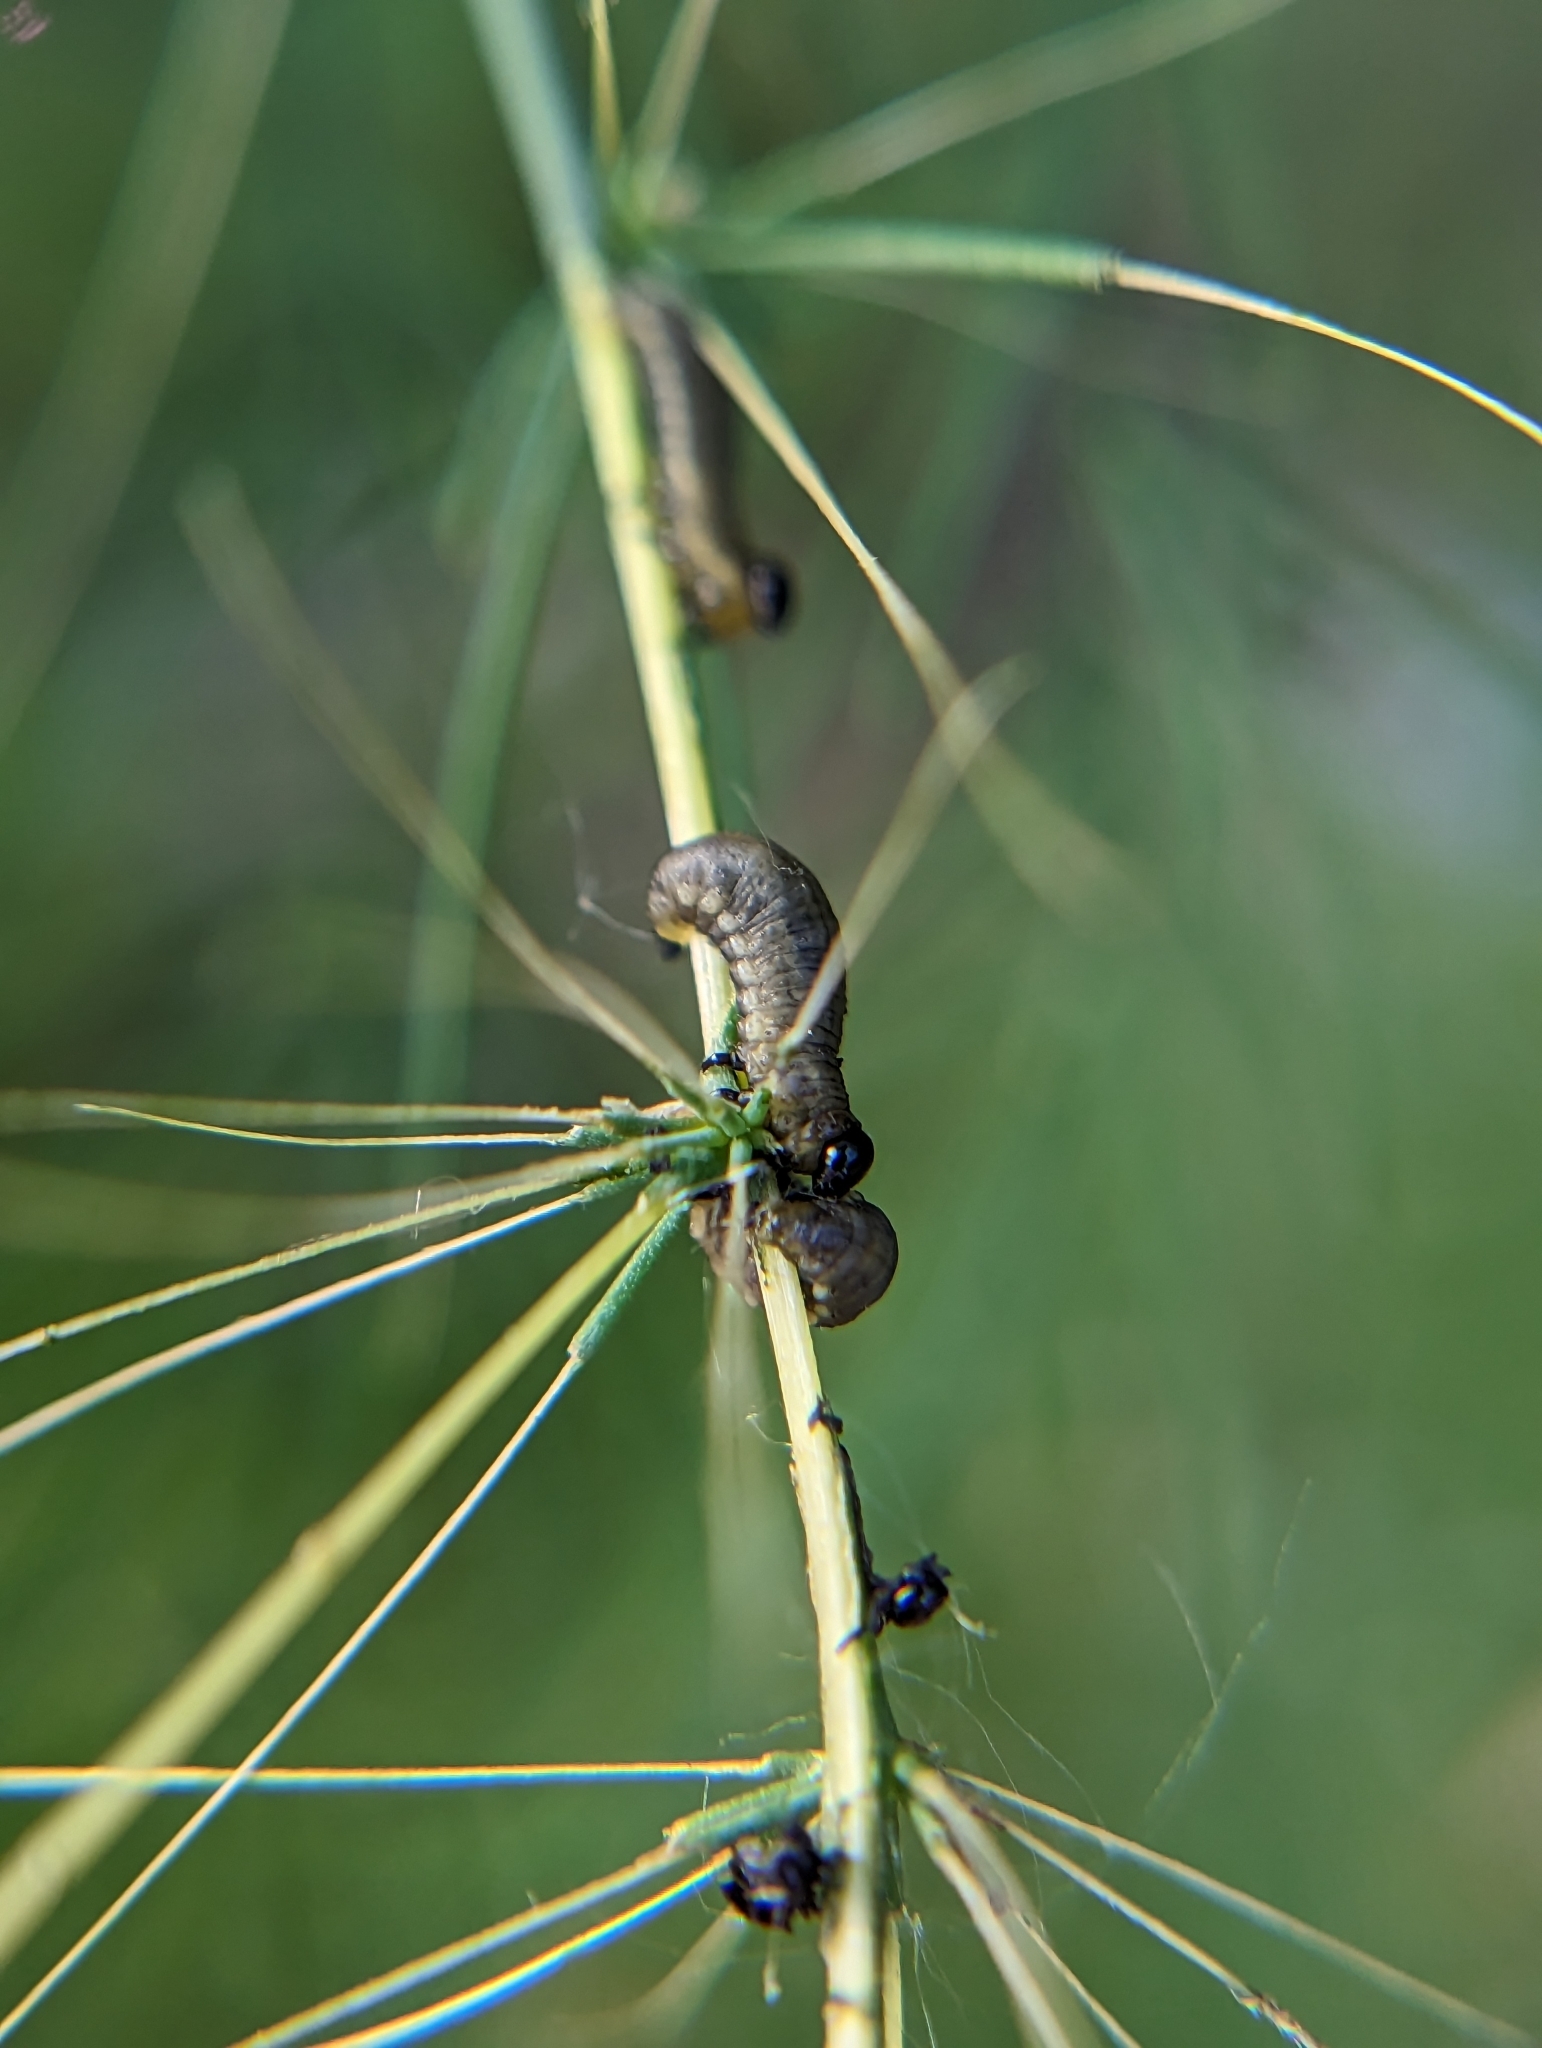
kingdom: Animalia
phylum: Arthropoda
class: Insecta
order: Coleoptera
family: Chrysomelidae
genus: Crioceris
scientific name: Crioceris asparagi
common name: Asparagus beetle
